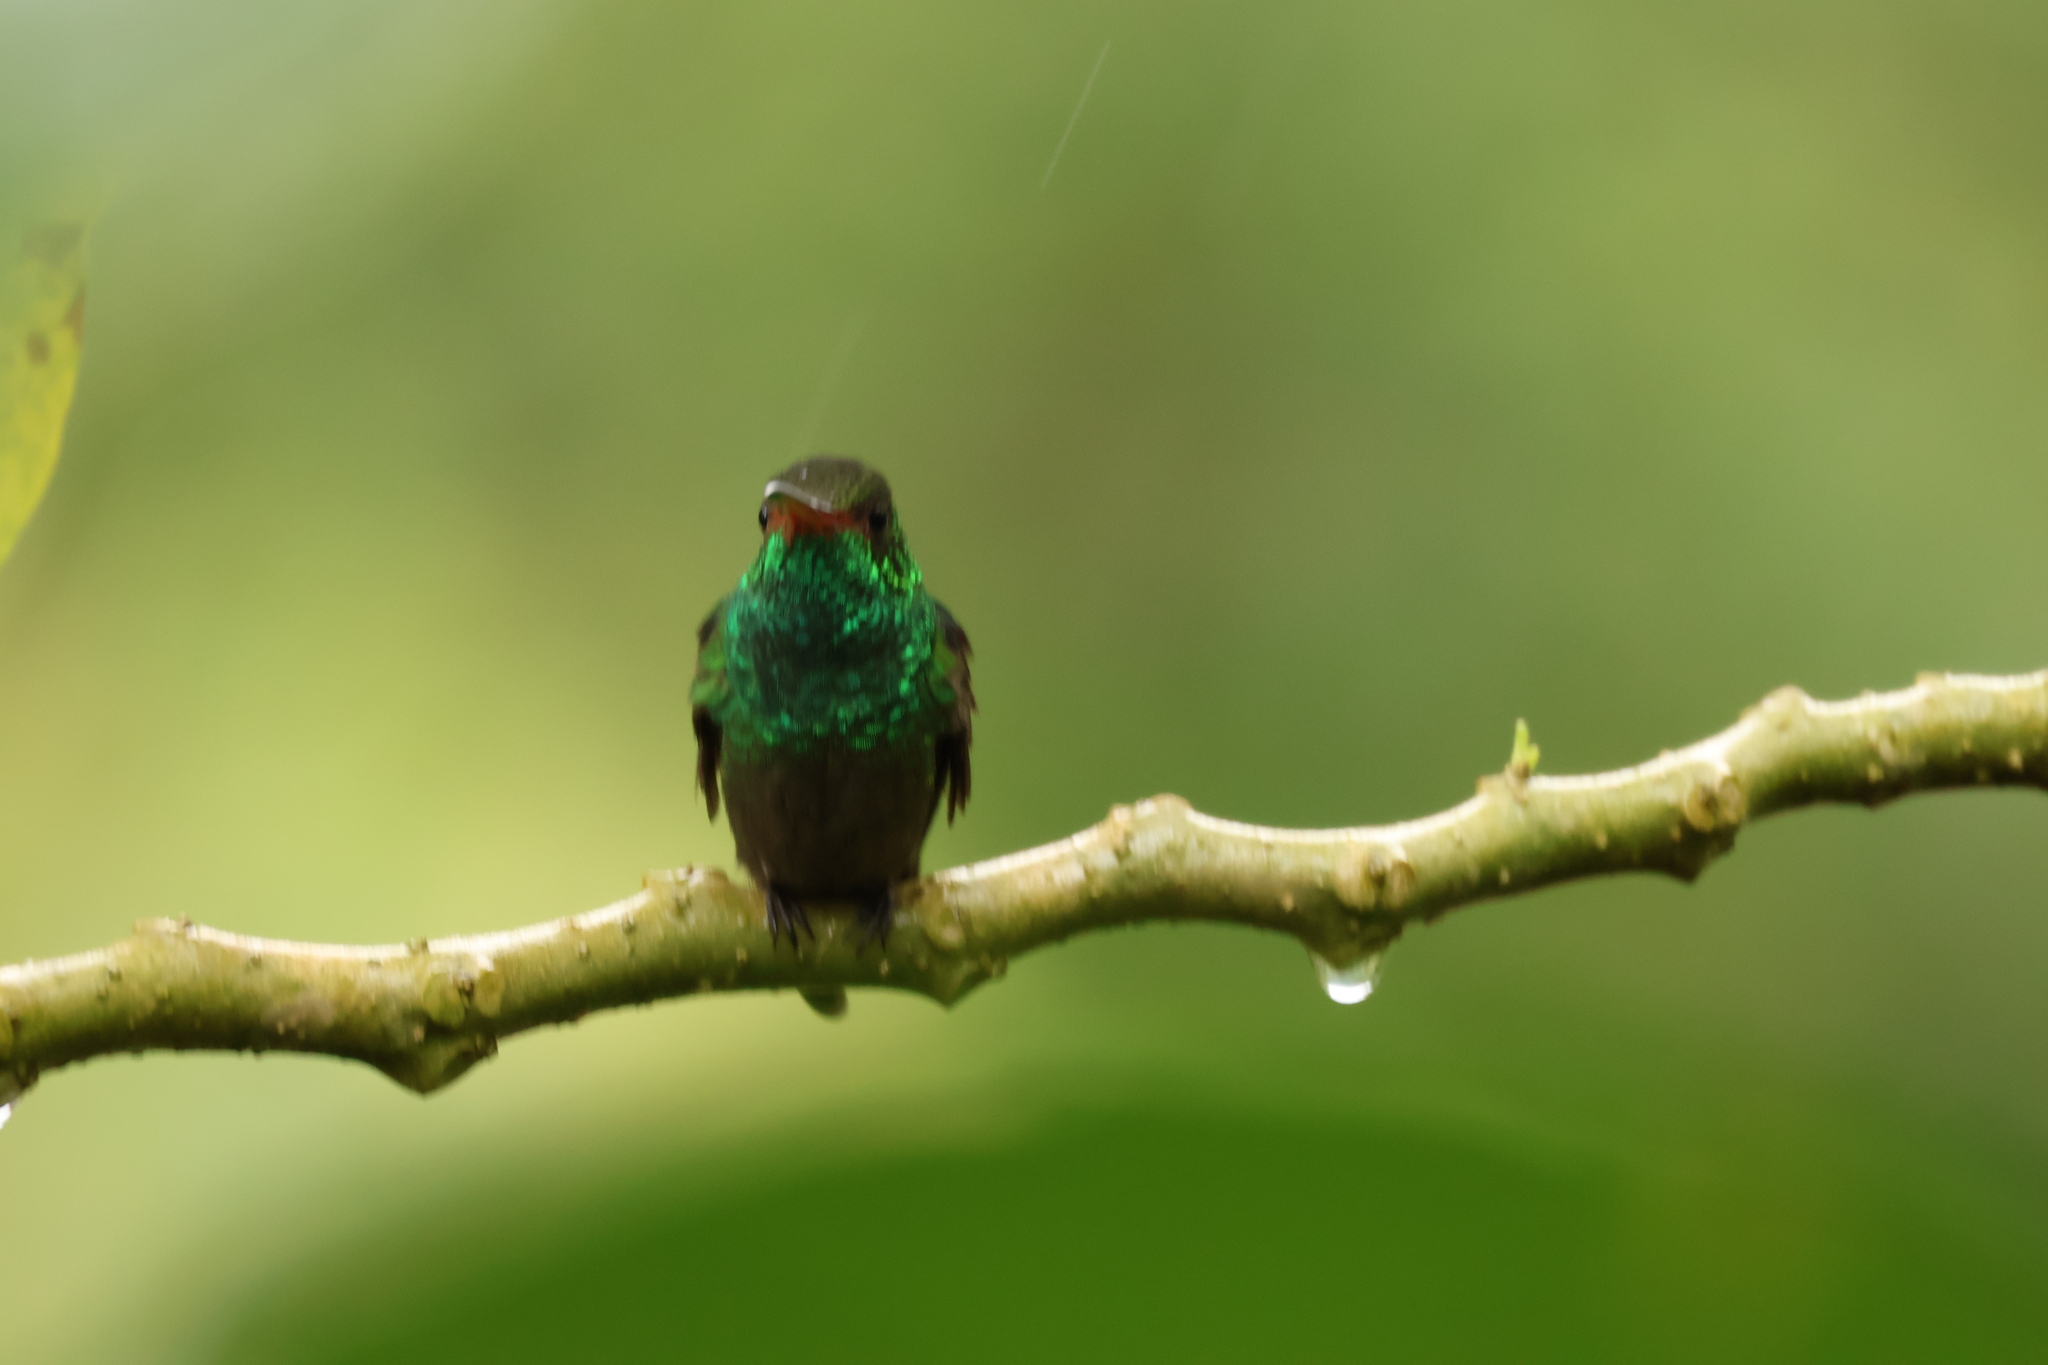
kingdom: Animalia
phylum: Chordata
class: Aves
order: Apodiformes
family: Trochilidae
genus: Amazilia
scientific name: Amazilia tzacatl
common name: Rufous-tailed hummingbird
